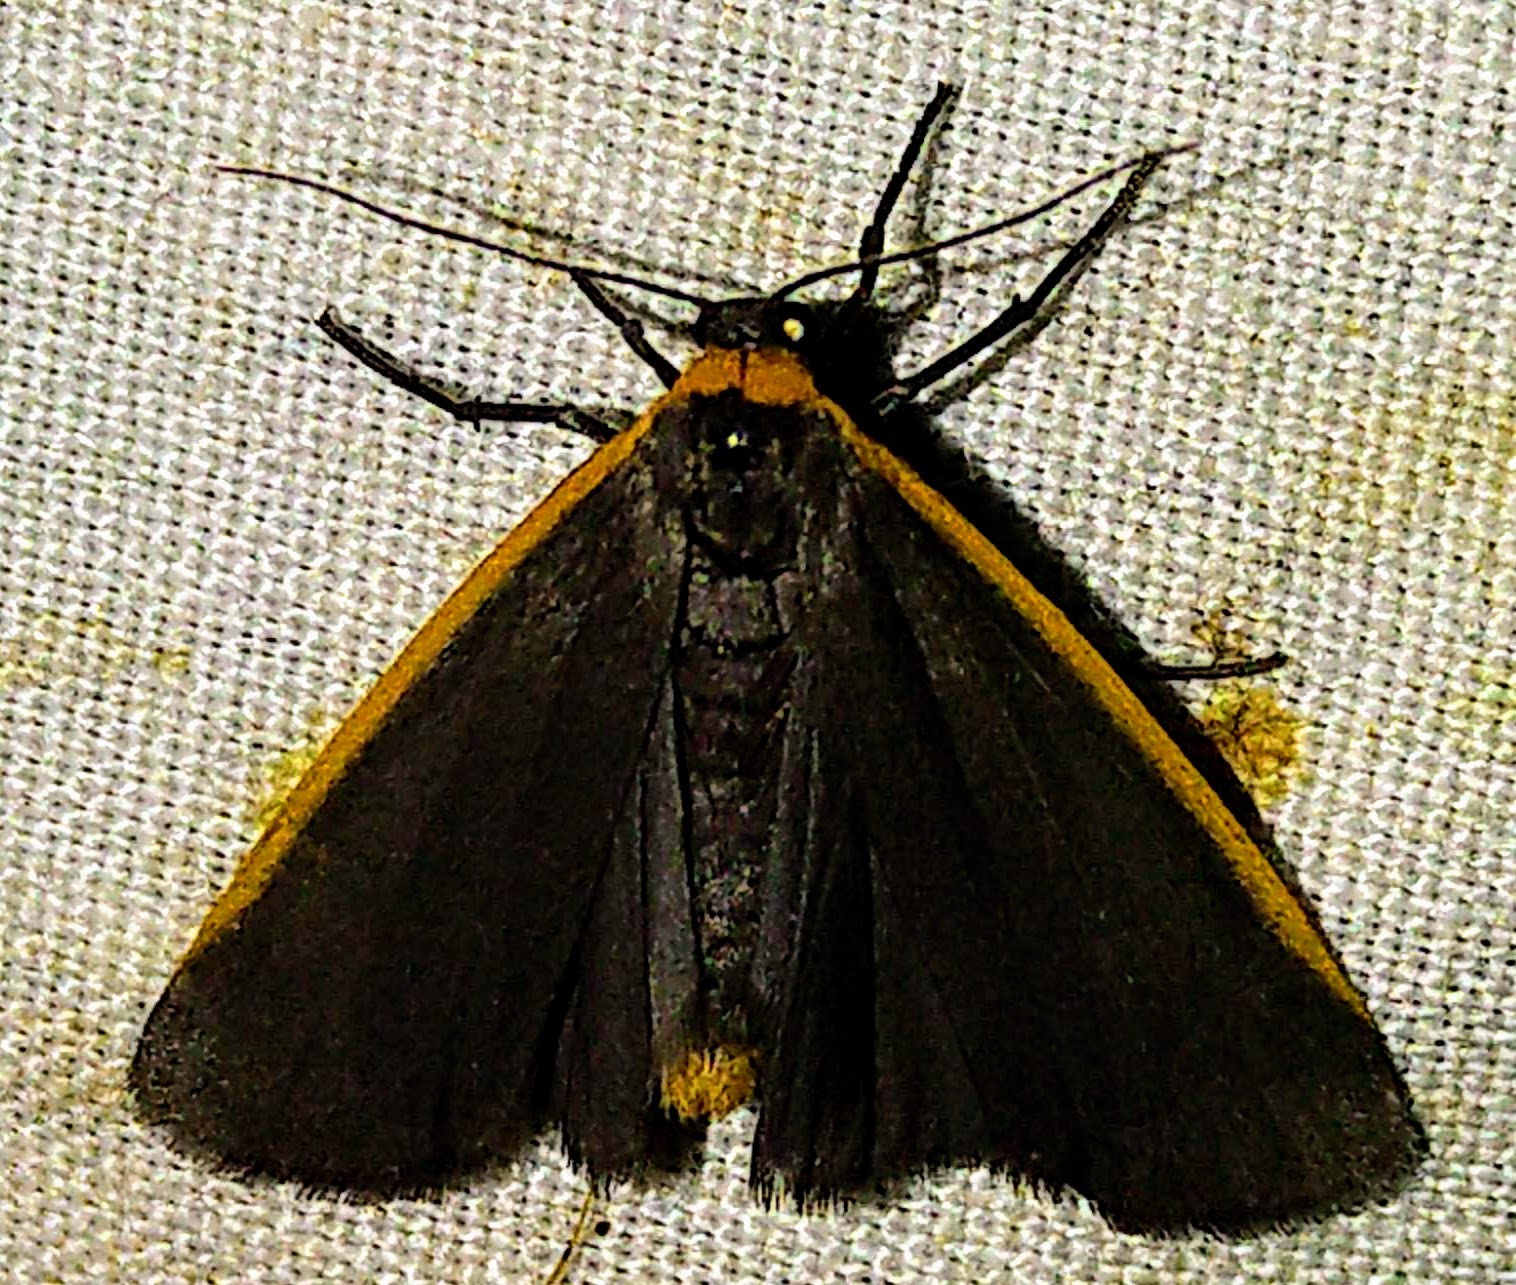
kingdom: Animalia
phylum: Arthropoda
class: Insecta
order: Lepidoptera
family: Erebidae
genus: Manulea
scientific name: Manulea bicolor
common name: Bicolored moth
